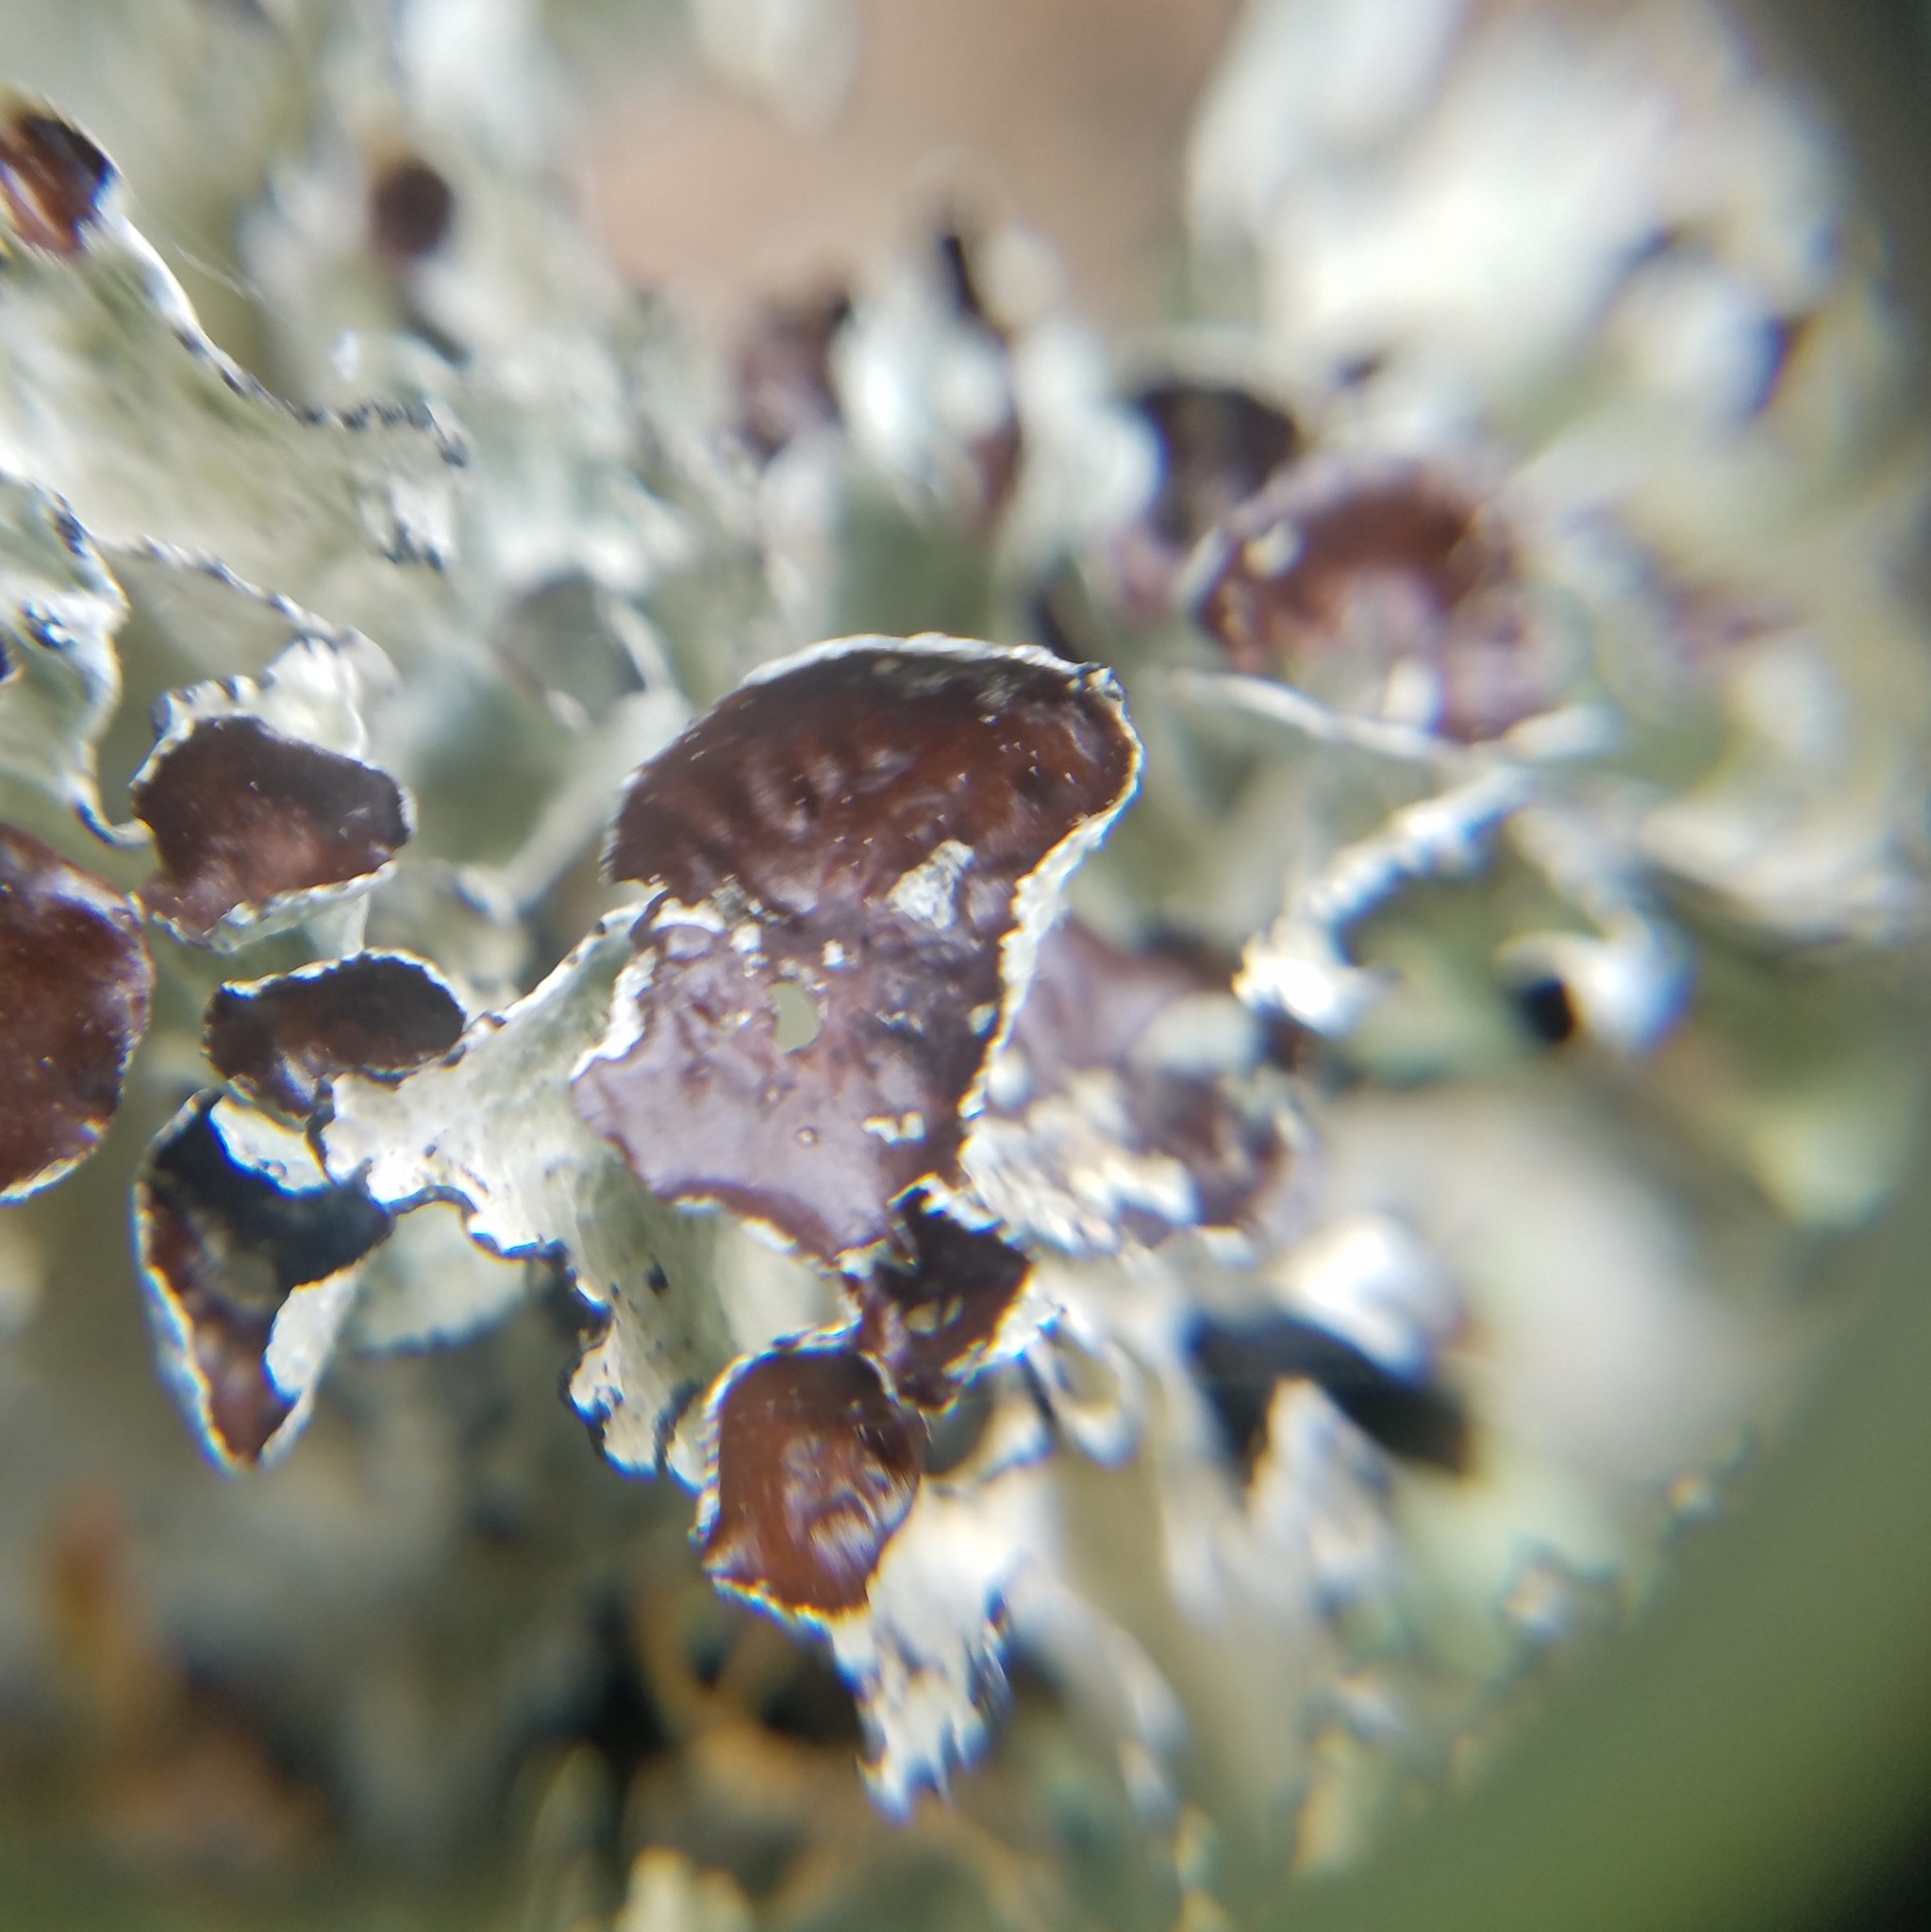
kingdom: Fungi
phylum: Ascomycota
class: Lecanoromycetes
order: Lecanorales
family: Parmeliaceae
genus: Platismatia
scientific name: Platismatia tuckermanii
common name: Crumpled rag lichen
